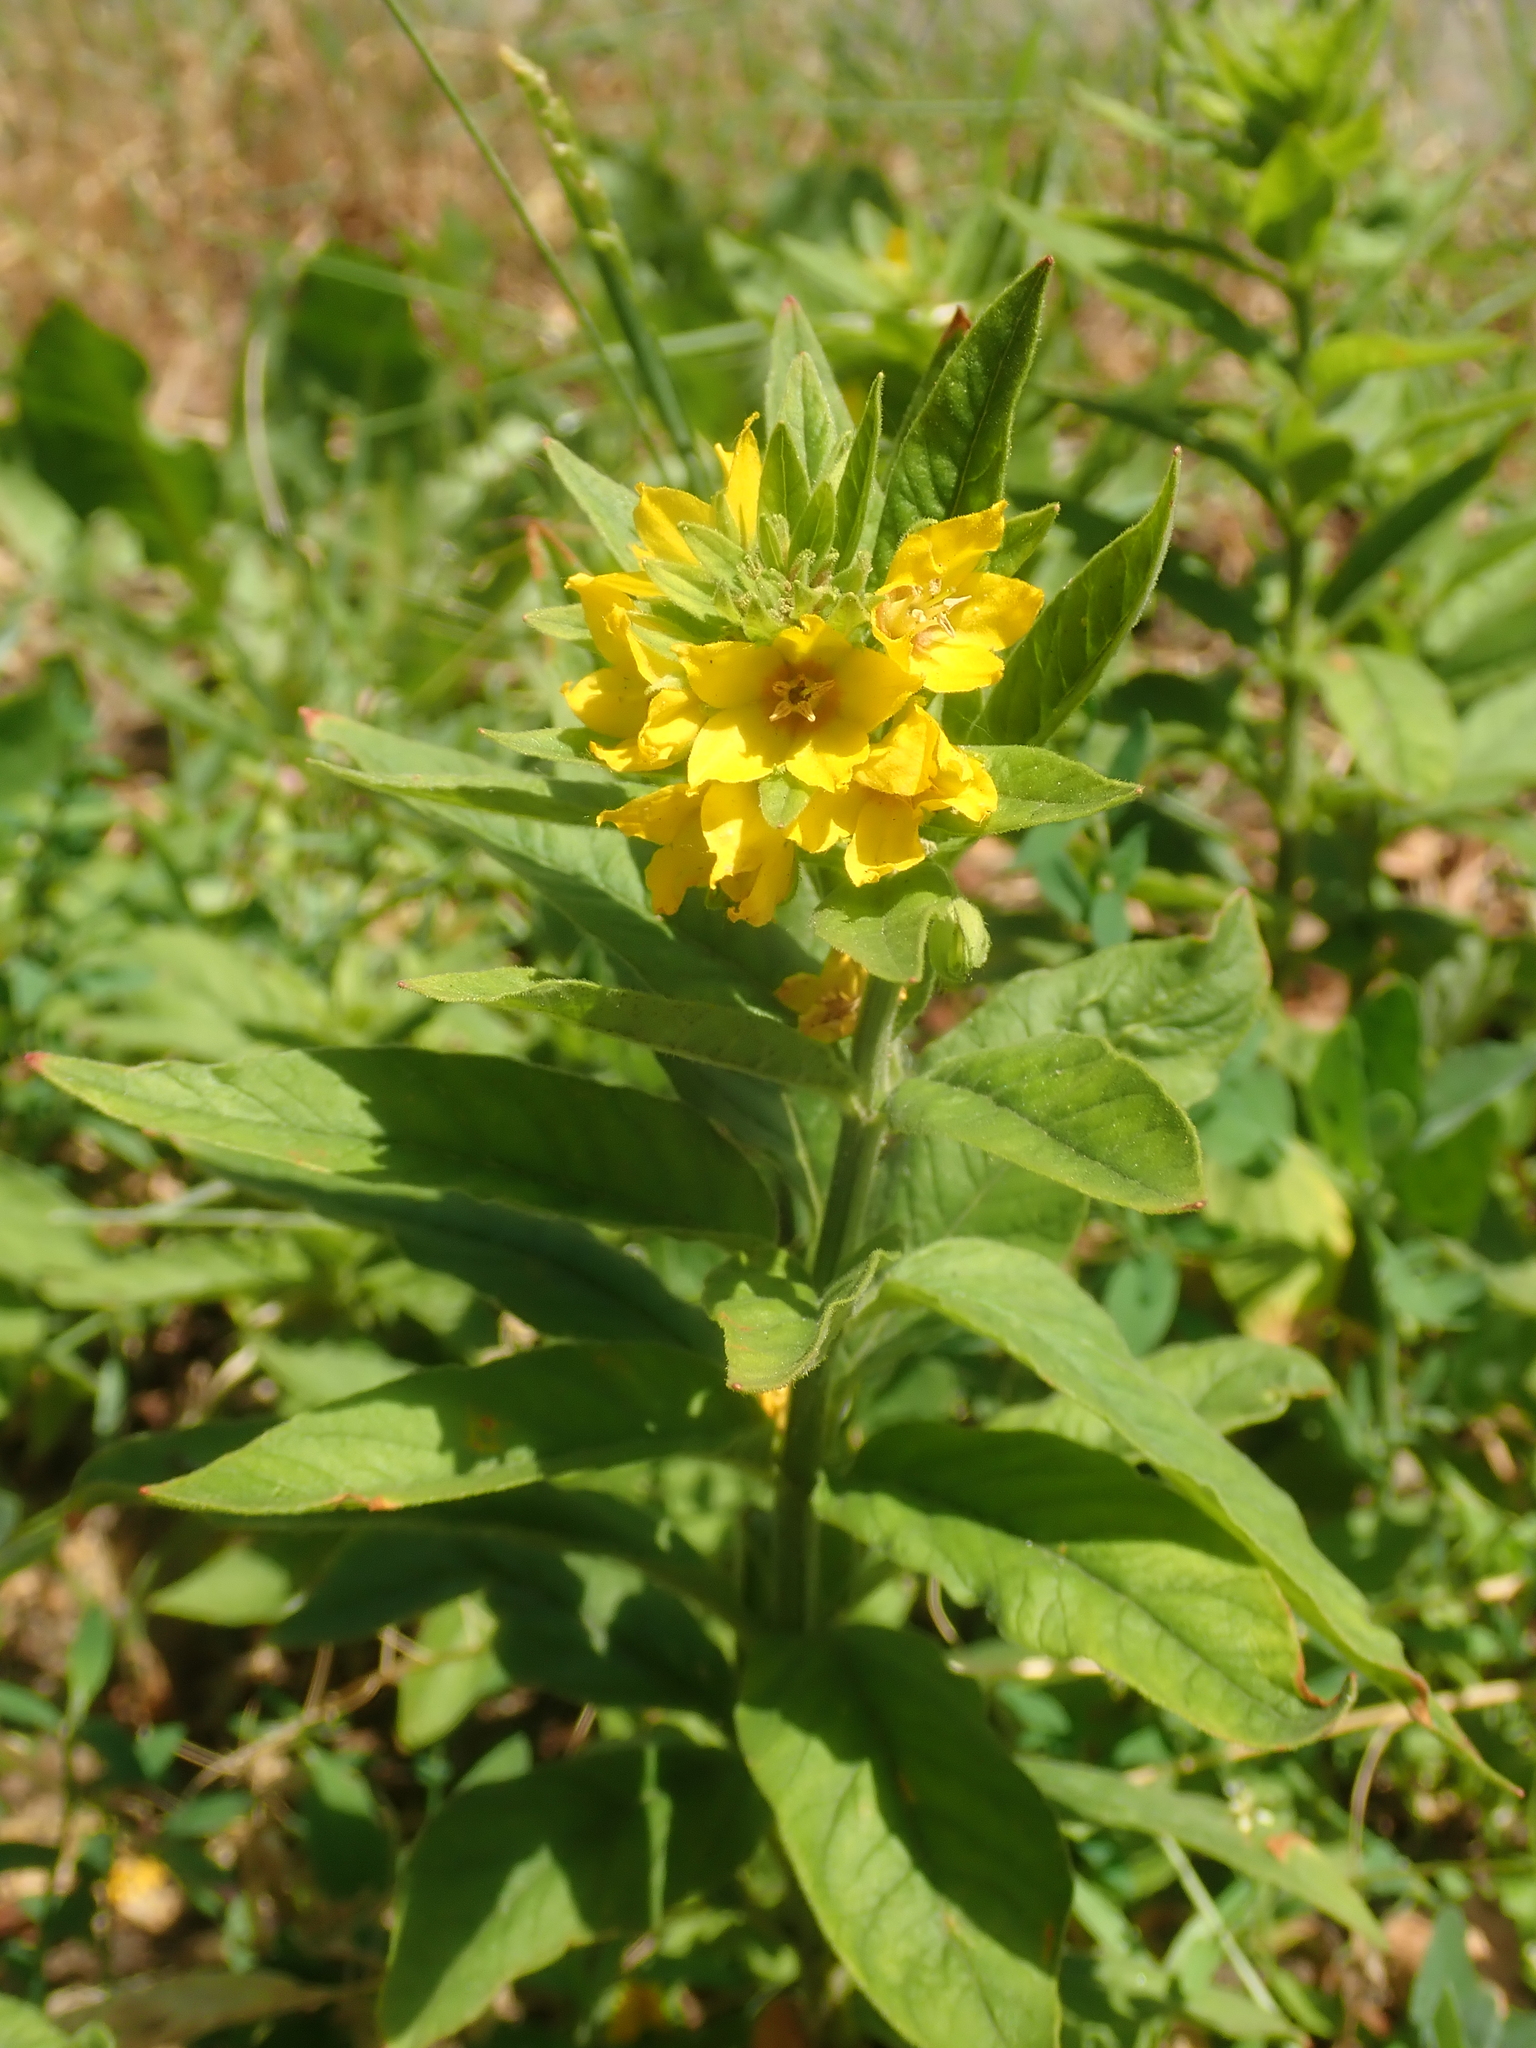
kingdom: Plantae
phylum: Tracheophyta
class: Magnoliopsida
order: Ericales
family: Primulaceae
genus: Lysimachia
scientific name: Lysimachia punctata
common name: Dotted loosestrife
